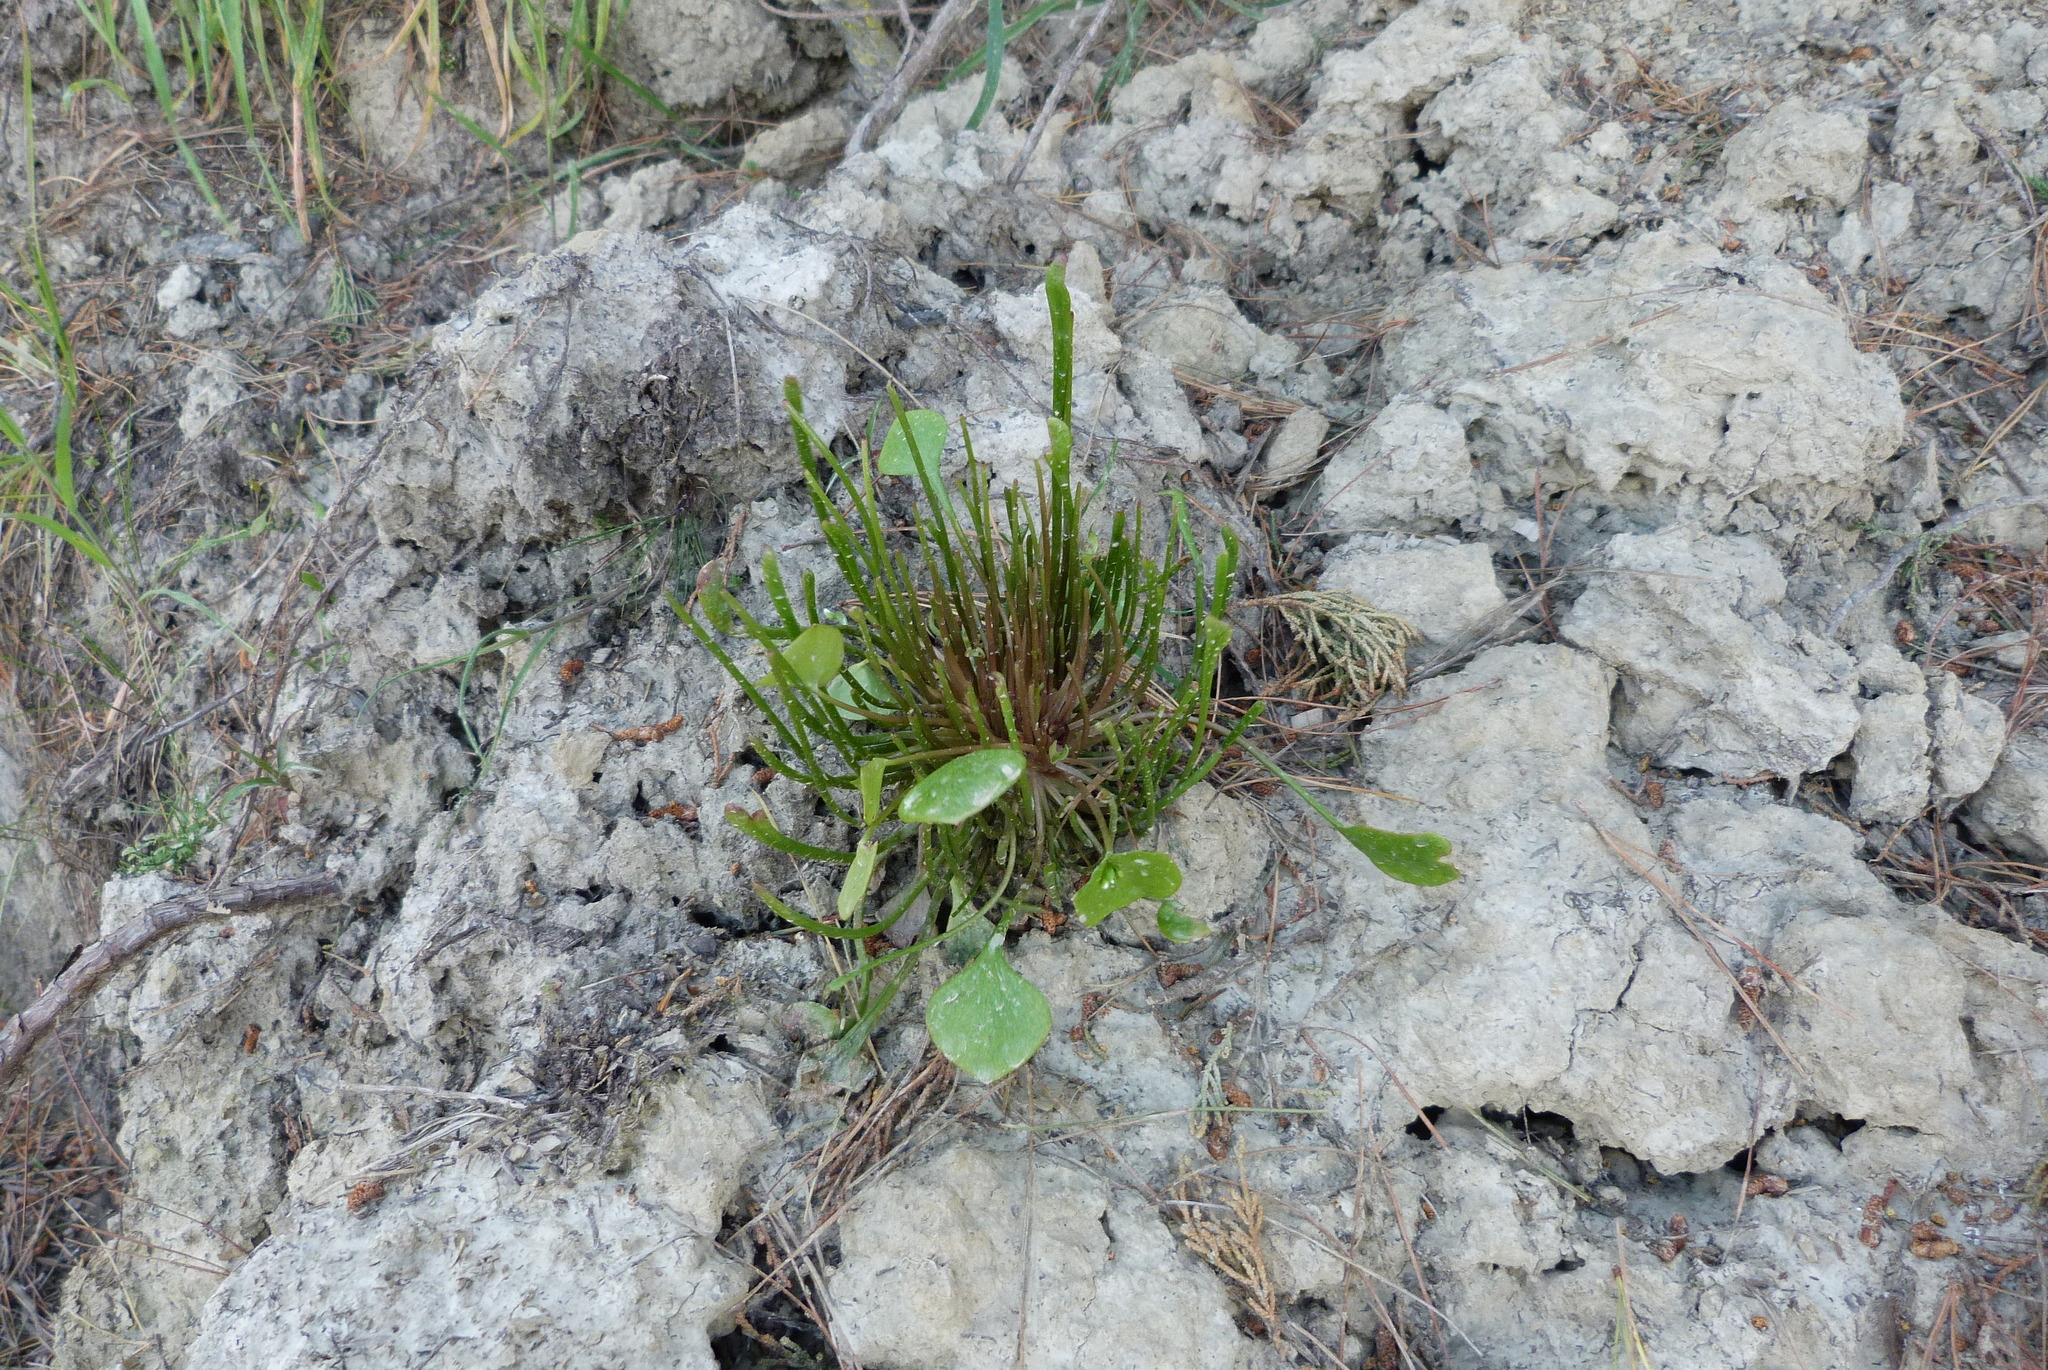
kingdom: Plantae
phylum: Tracheophyta
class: Magnoliopsida
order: Caryophyllales
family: Montiaceae
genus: Claytonia
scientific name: Claytonia perfoliata
